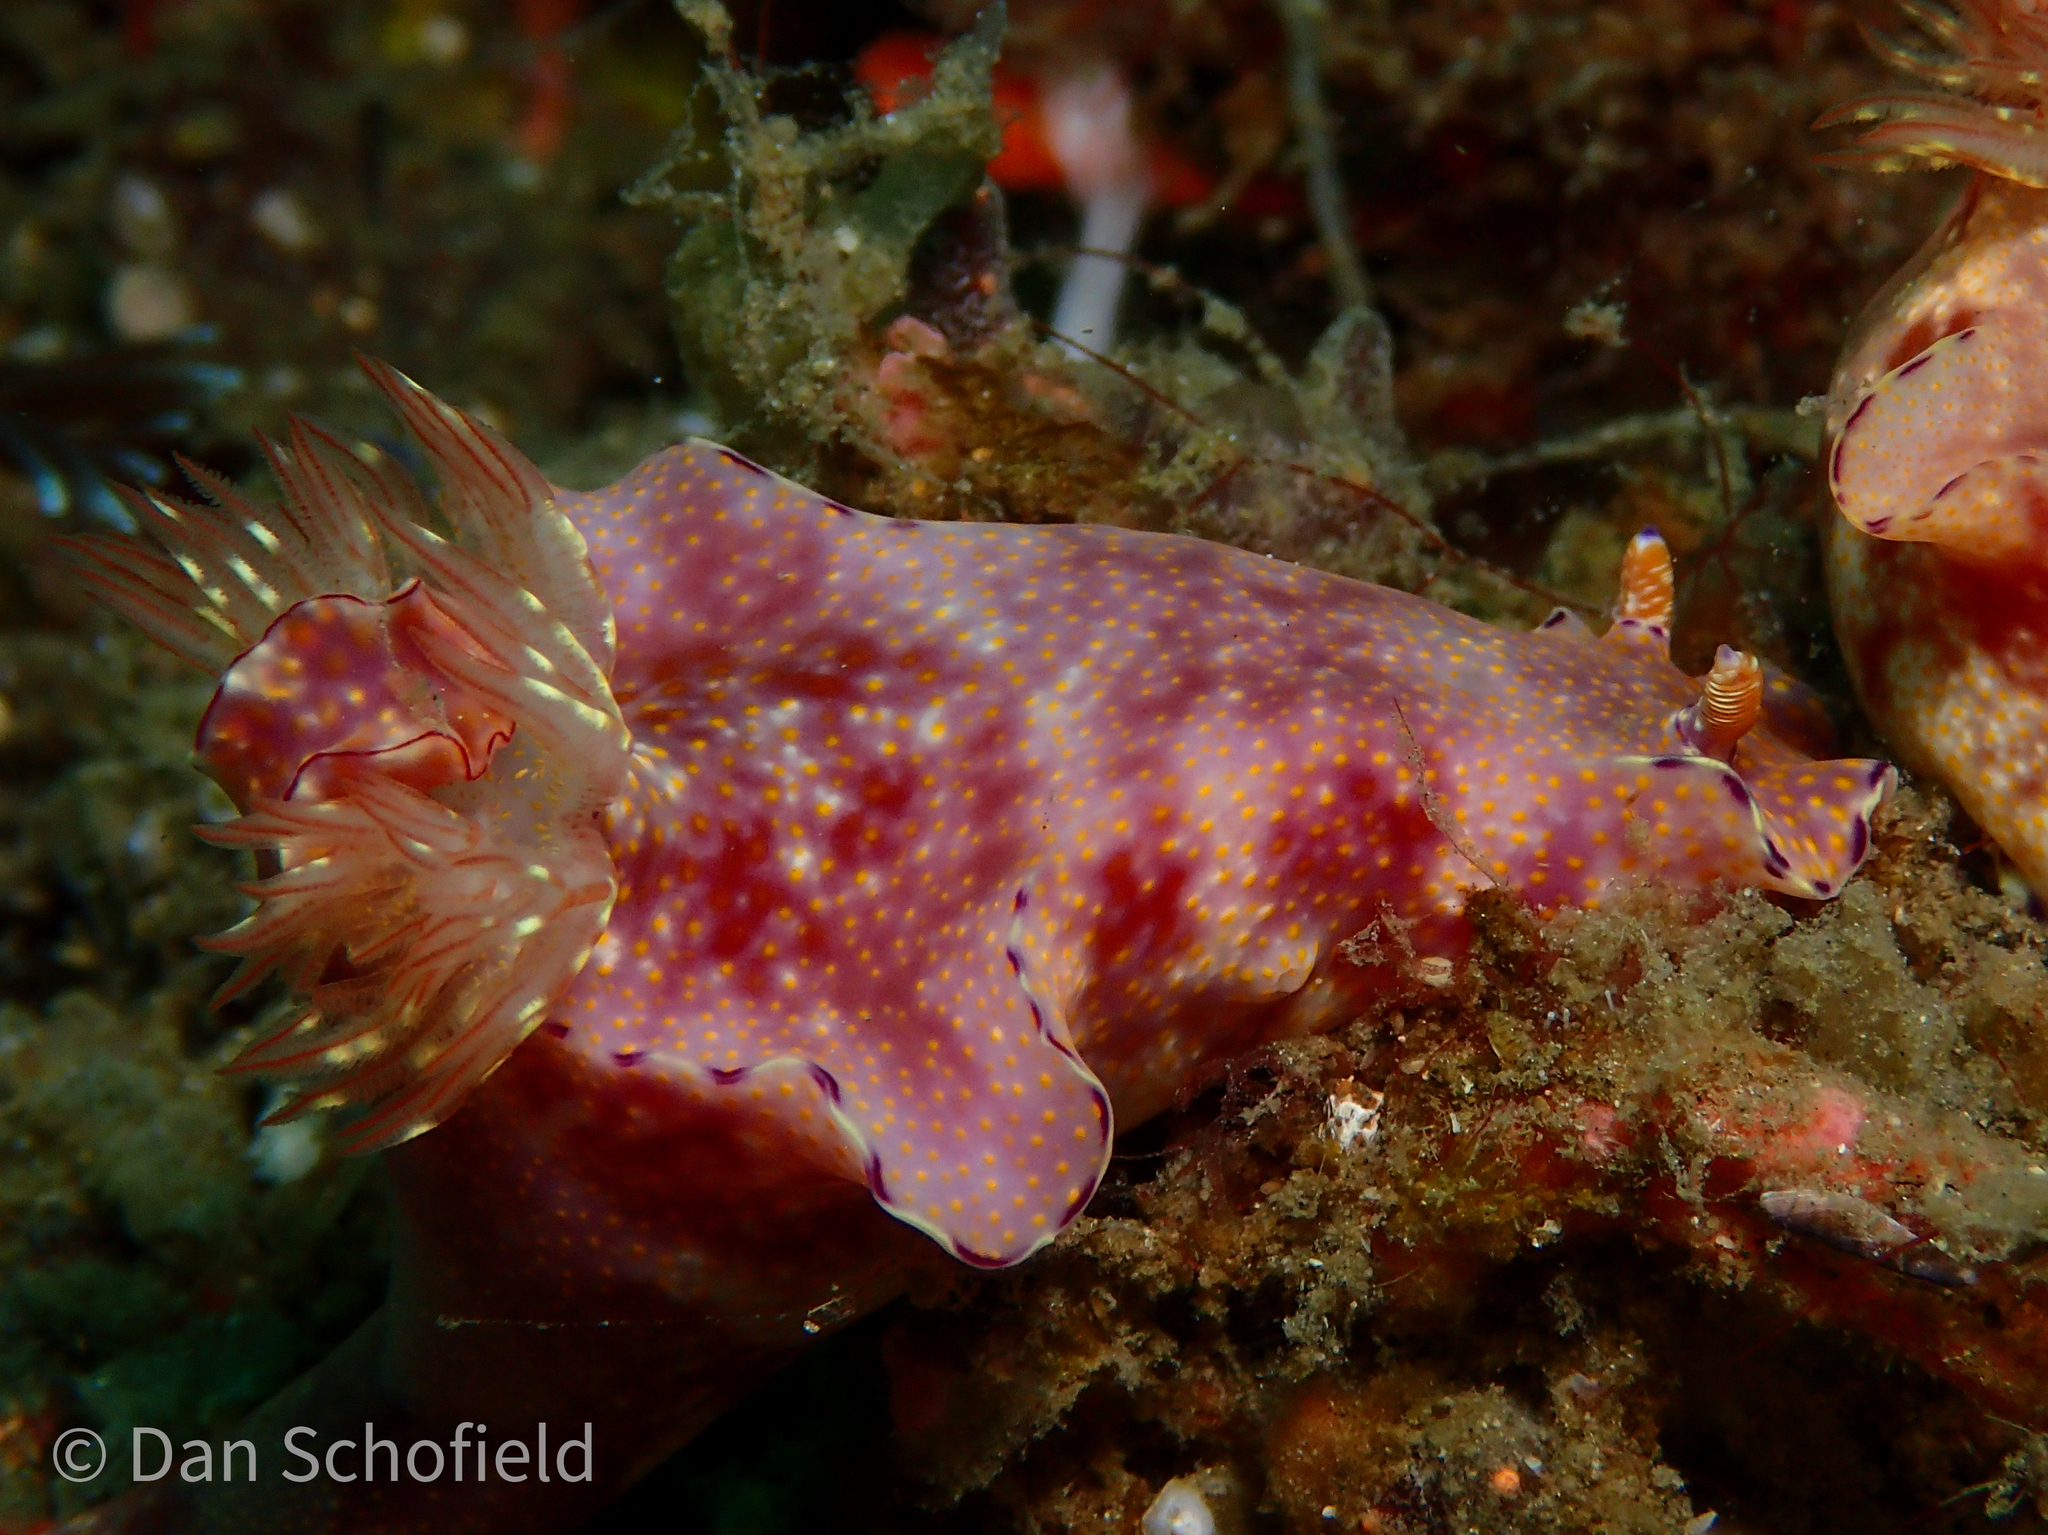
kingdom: Animalia
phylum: Mollusca
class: Gastropoda
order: Nudibranchia
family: Chromodorididae
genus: Ceratosoma
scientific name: Ceratosoma gracillimum
